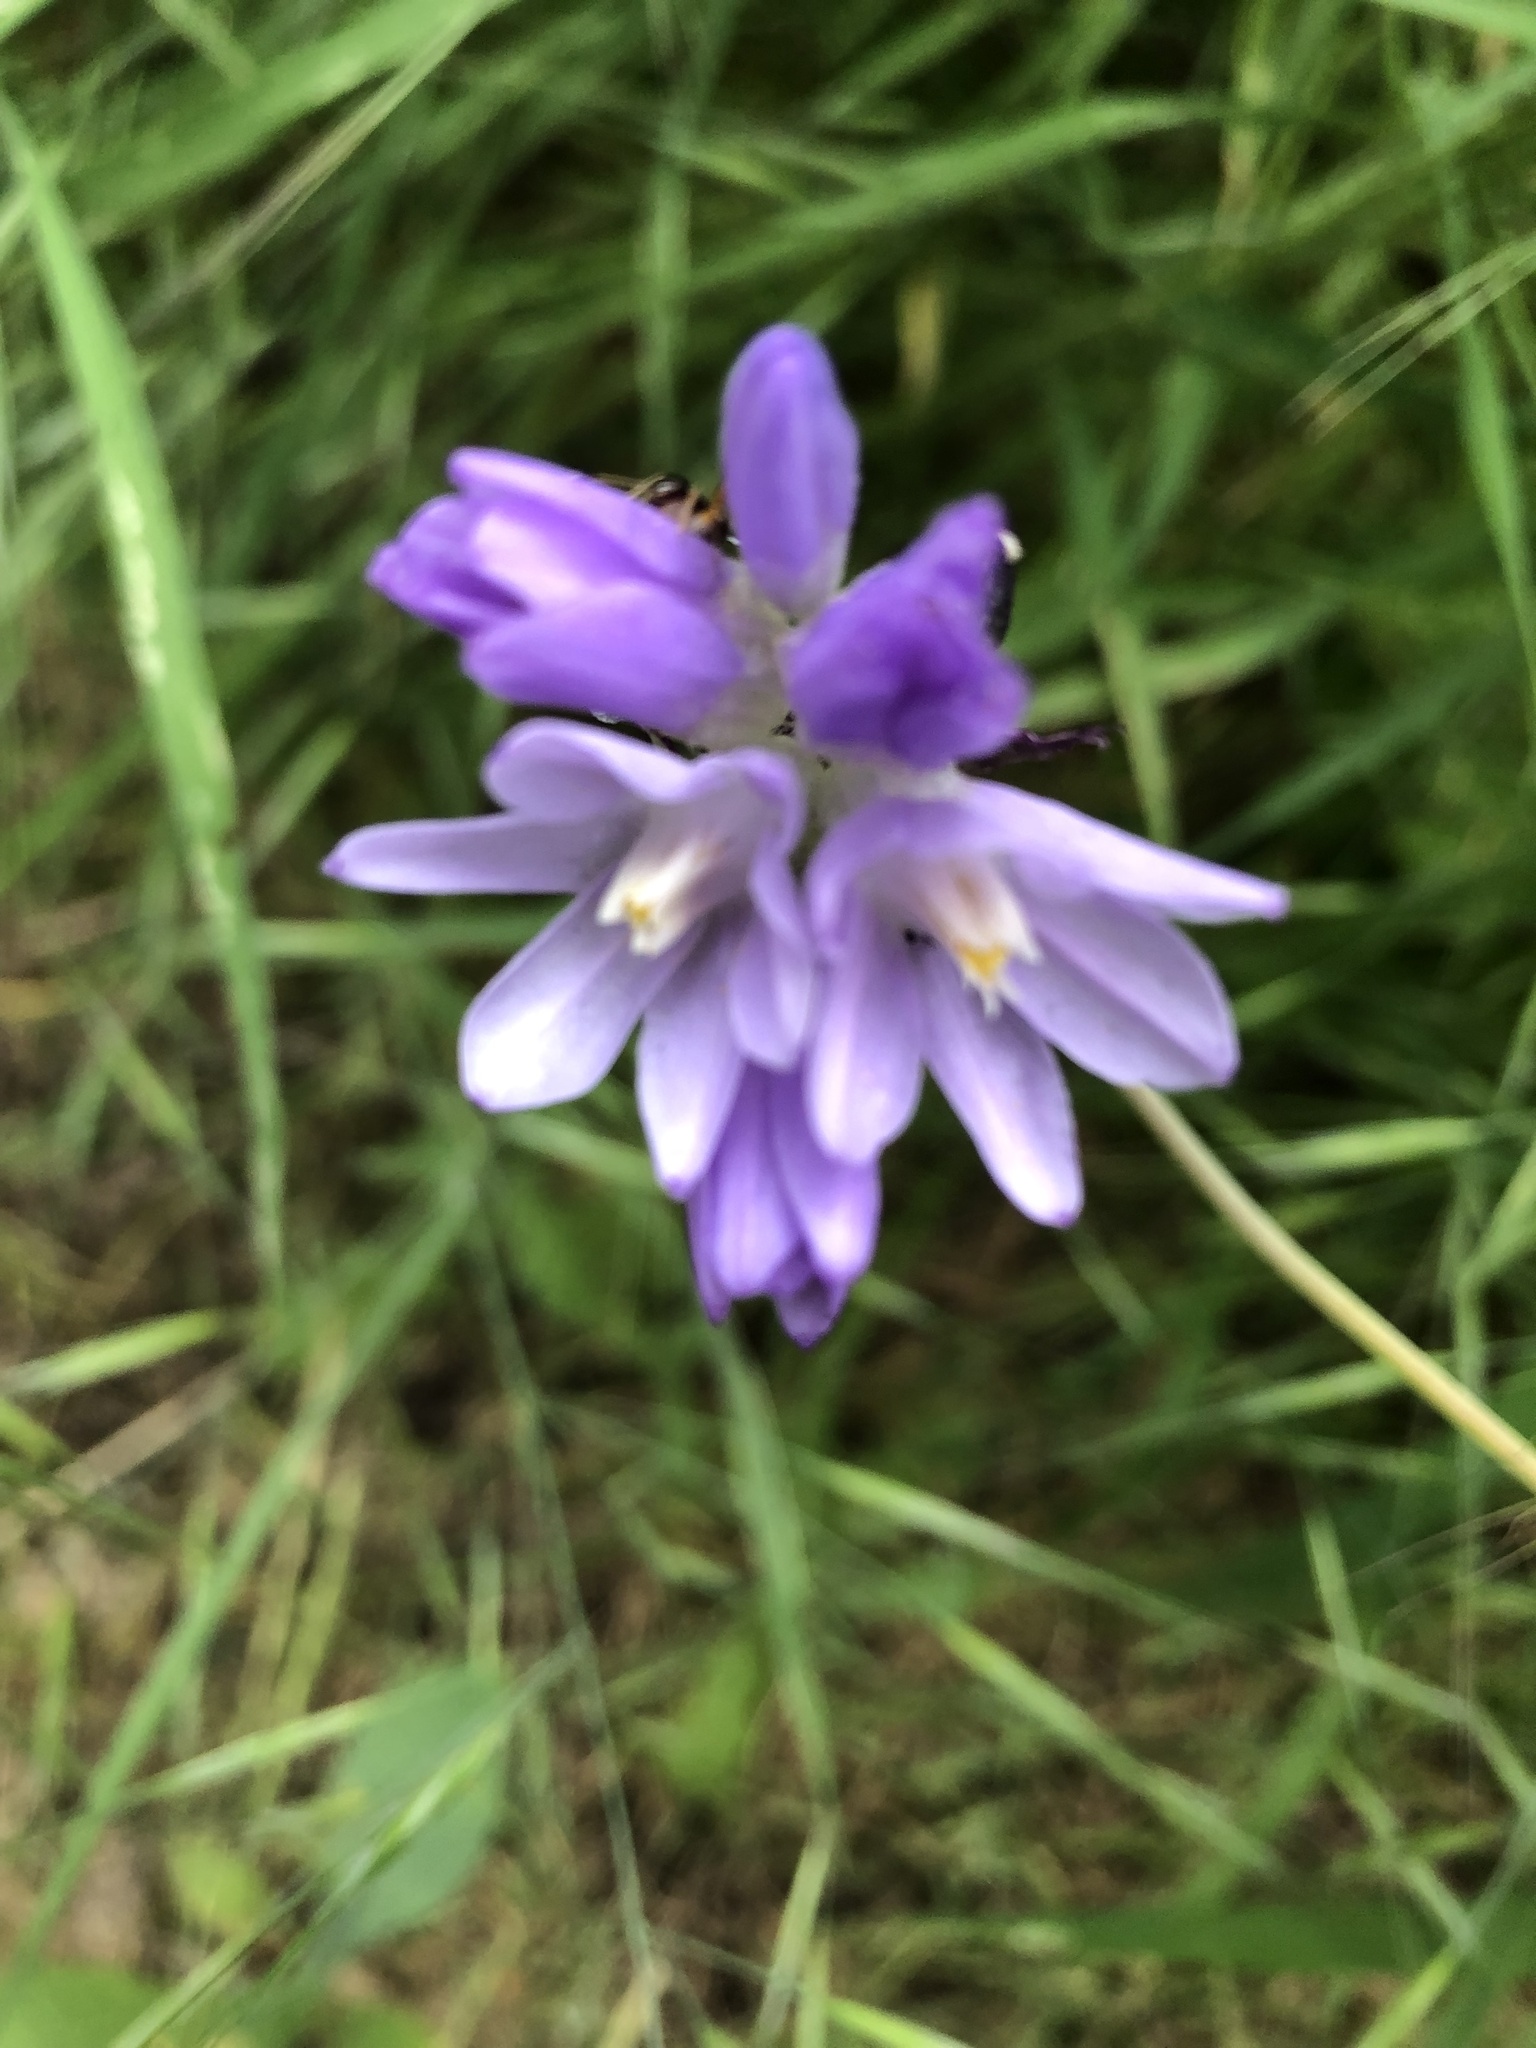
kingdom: Plantae
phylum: Tracheophyta
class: Liliopsida
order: Asparagales
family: Asparagaceae
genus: Dichelostemma
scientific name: Dichelostemma congestum
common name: Fork-tooth ookow
